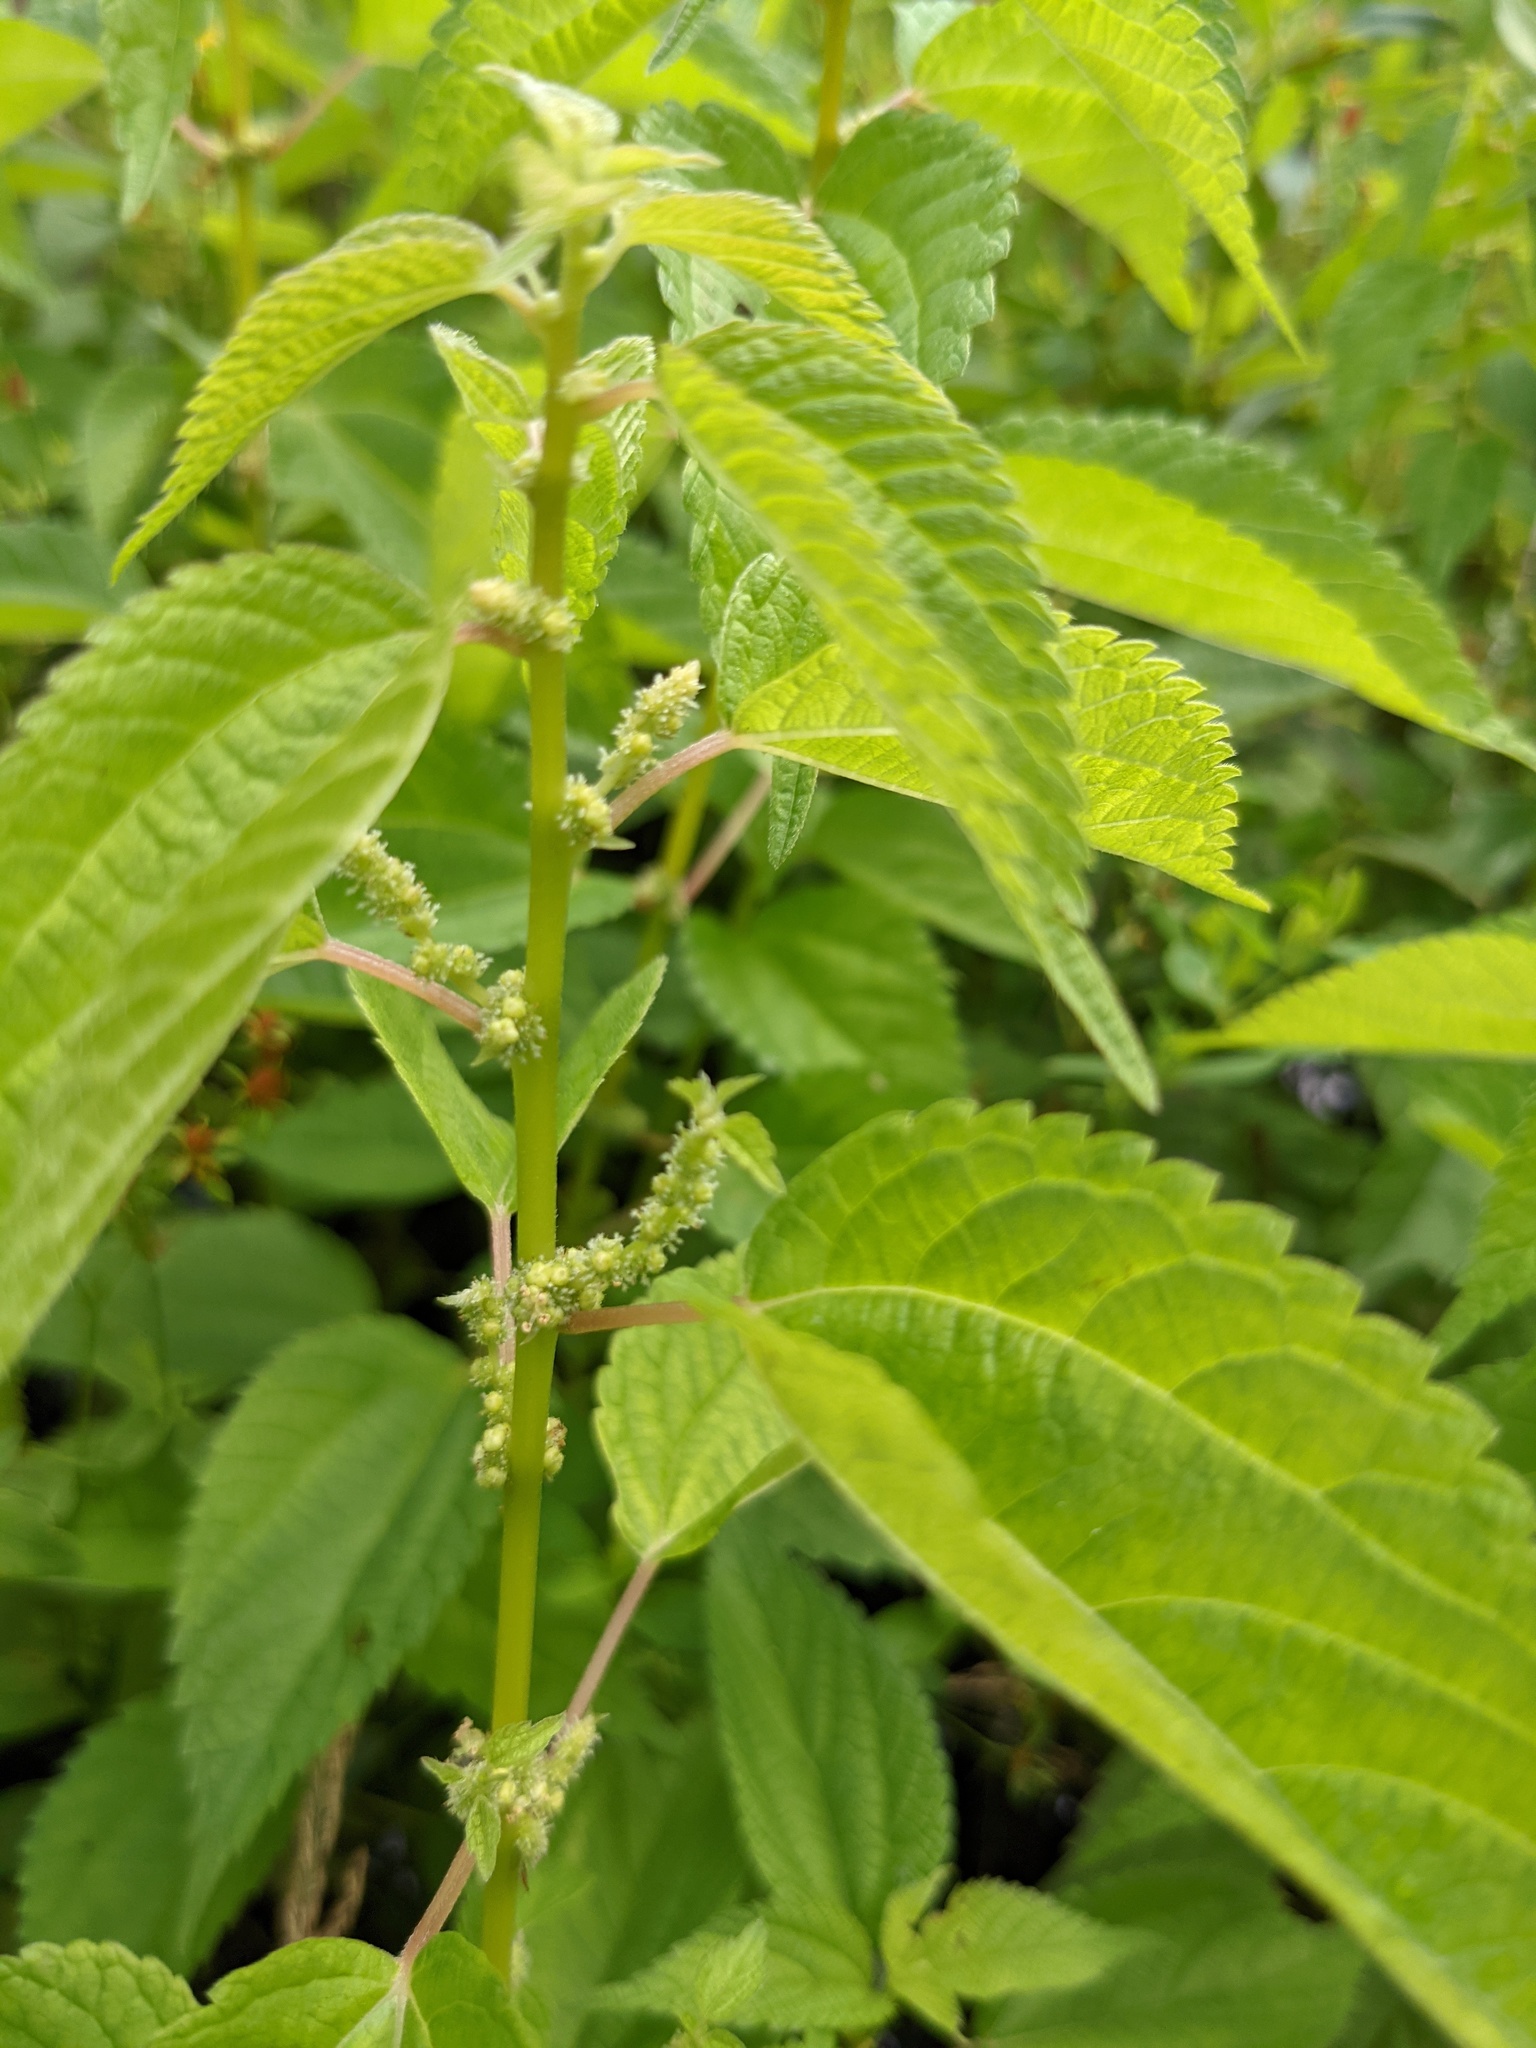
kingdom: Plantae
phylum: Tracheophyta
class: Magnoliopsida
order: Rosales
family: Urticaceae
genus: Boehmeria
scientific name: Boehmeria cylindrica
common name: Bog-hemp
